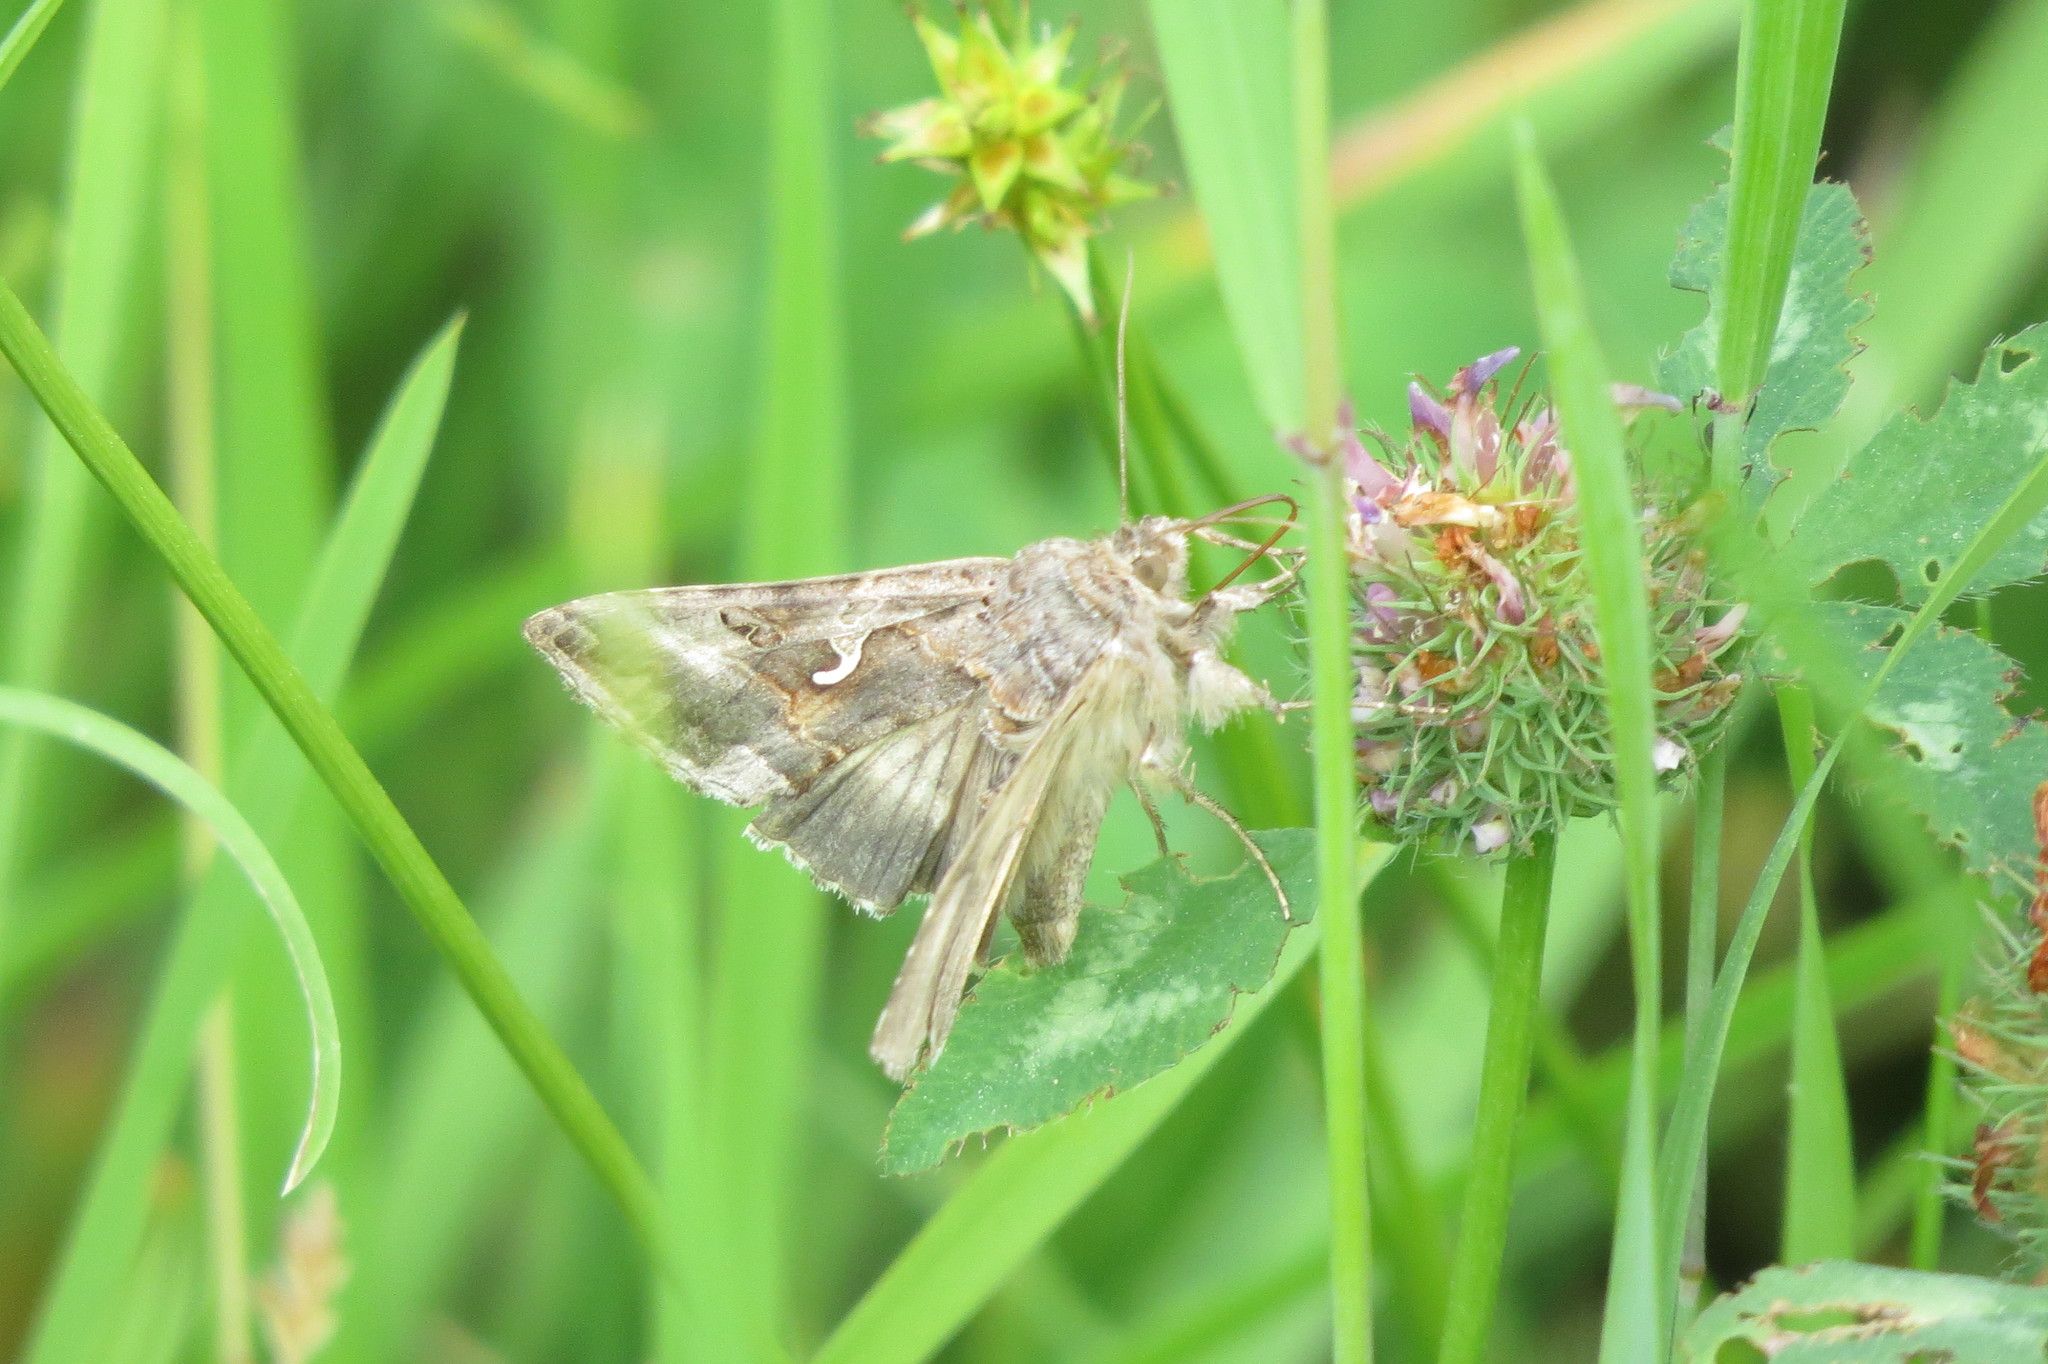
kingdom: Animalia
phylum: Arthropoda
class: Insecta
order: Lepidoptera
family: Noctuidae
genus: Autographa
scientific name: Autographa gamma
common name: Silver y
